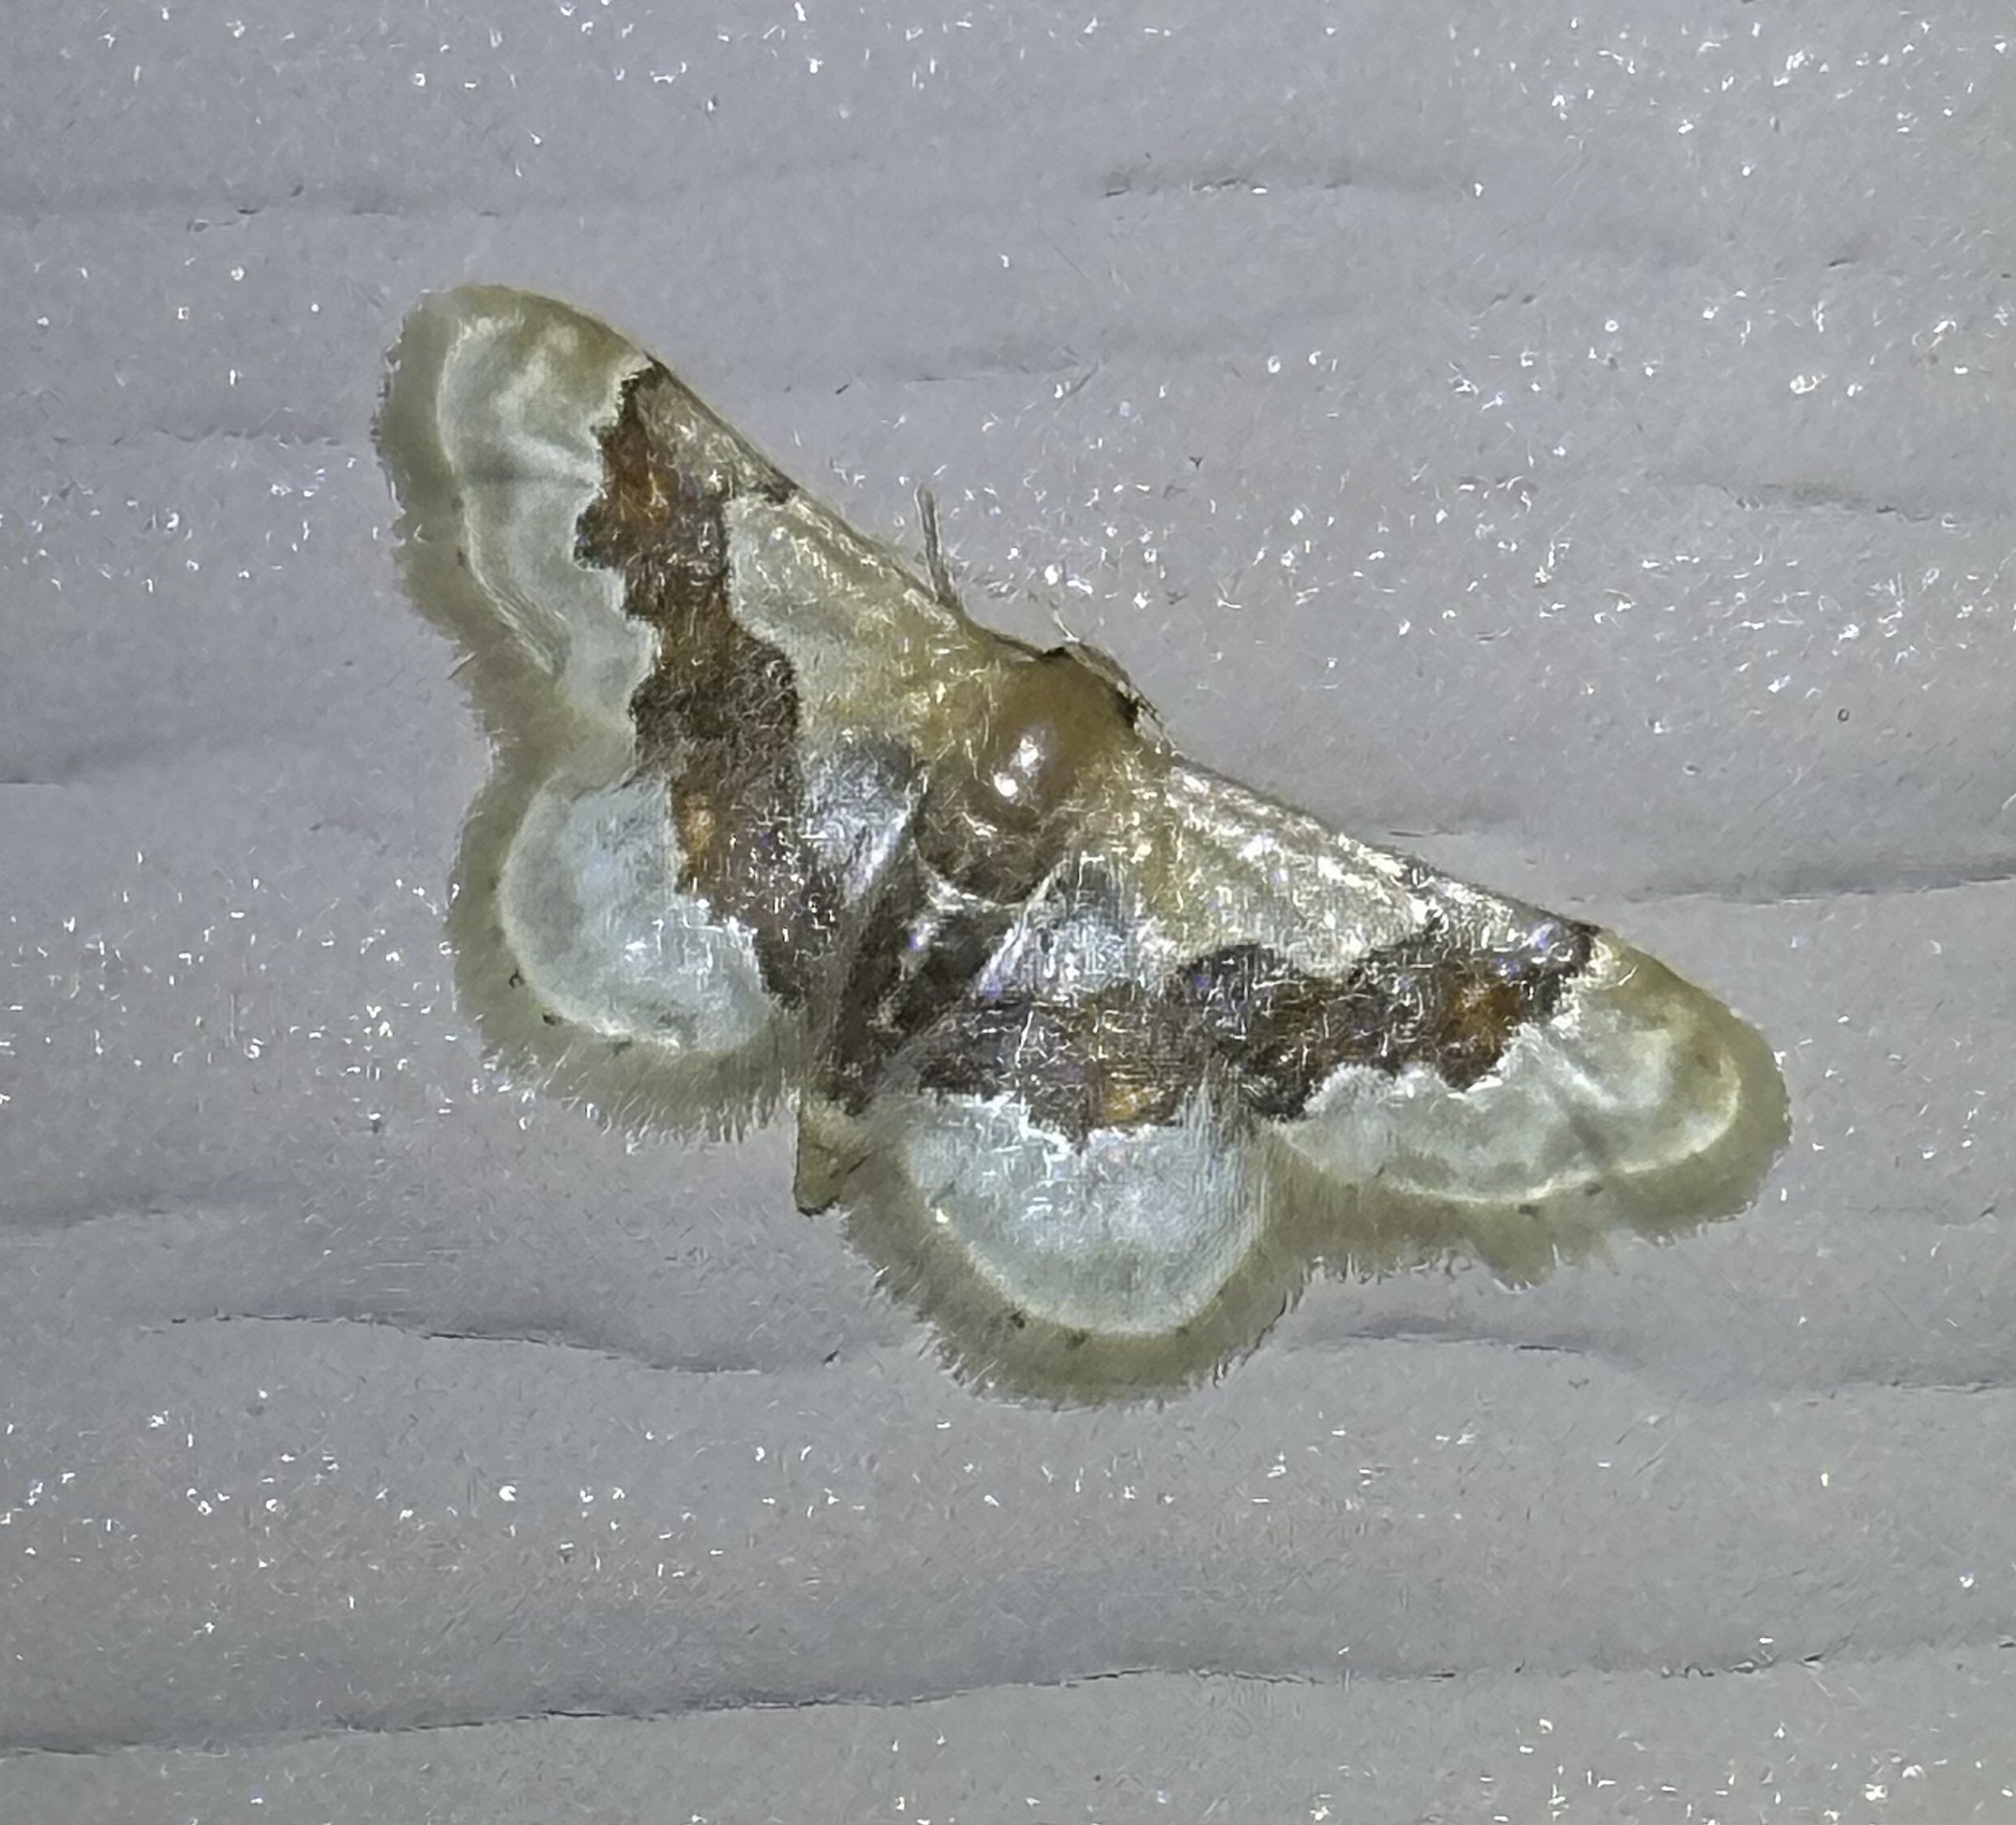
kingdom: Animalia
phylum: Arthropoda
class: Insecta
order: Lepidoptera
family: Geometridae
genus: Idaea
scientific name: Idaea gemmata
